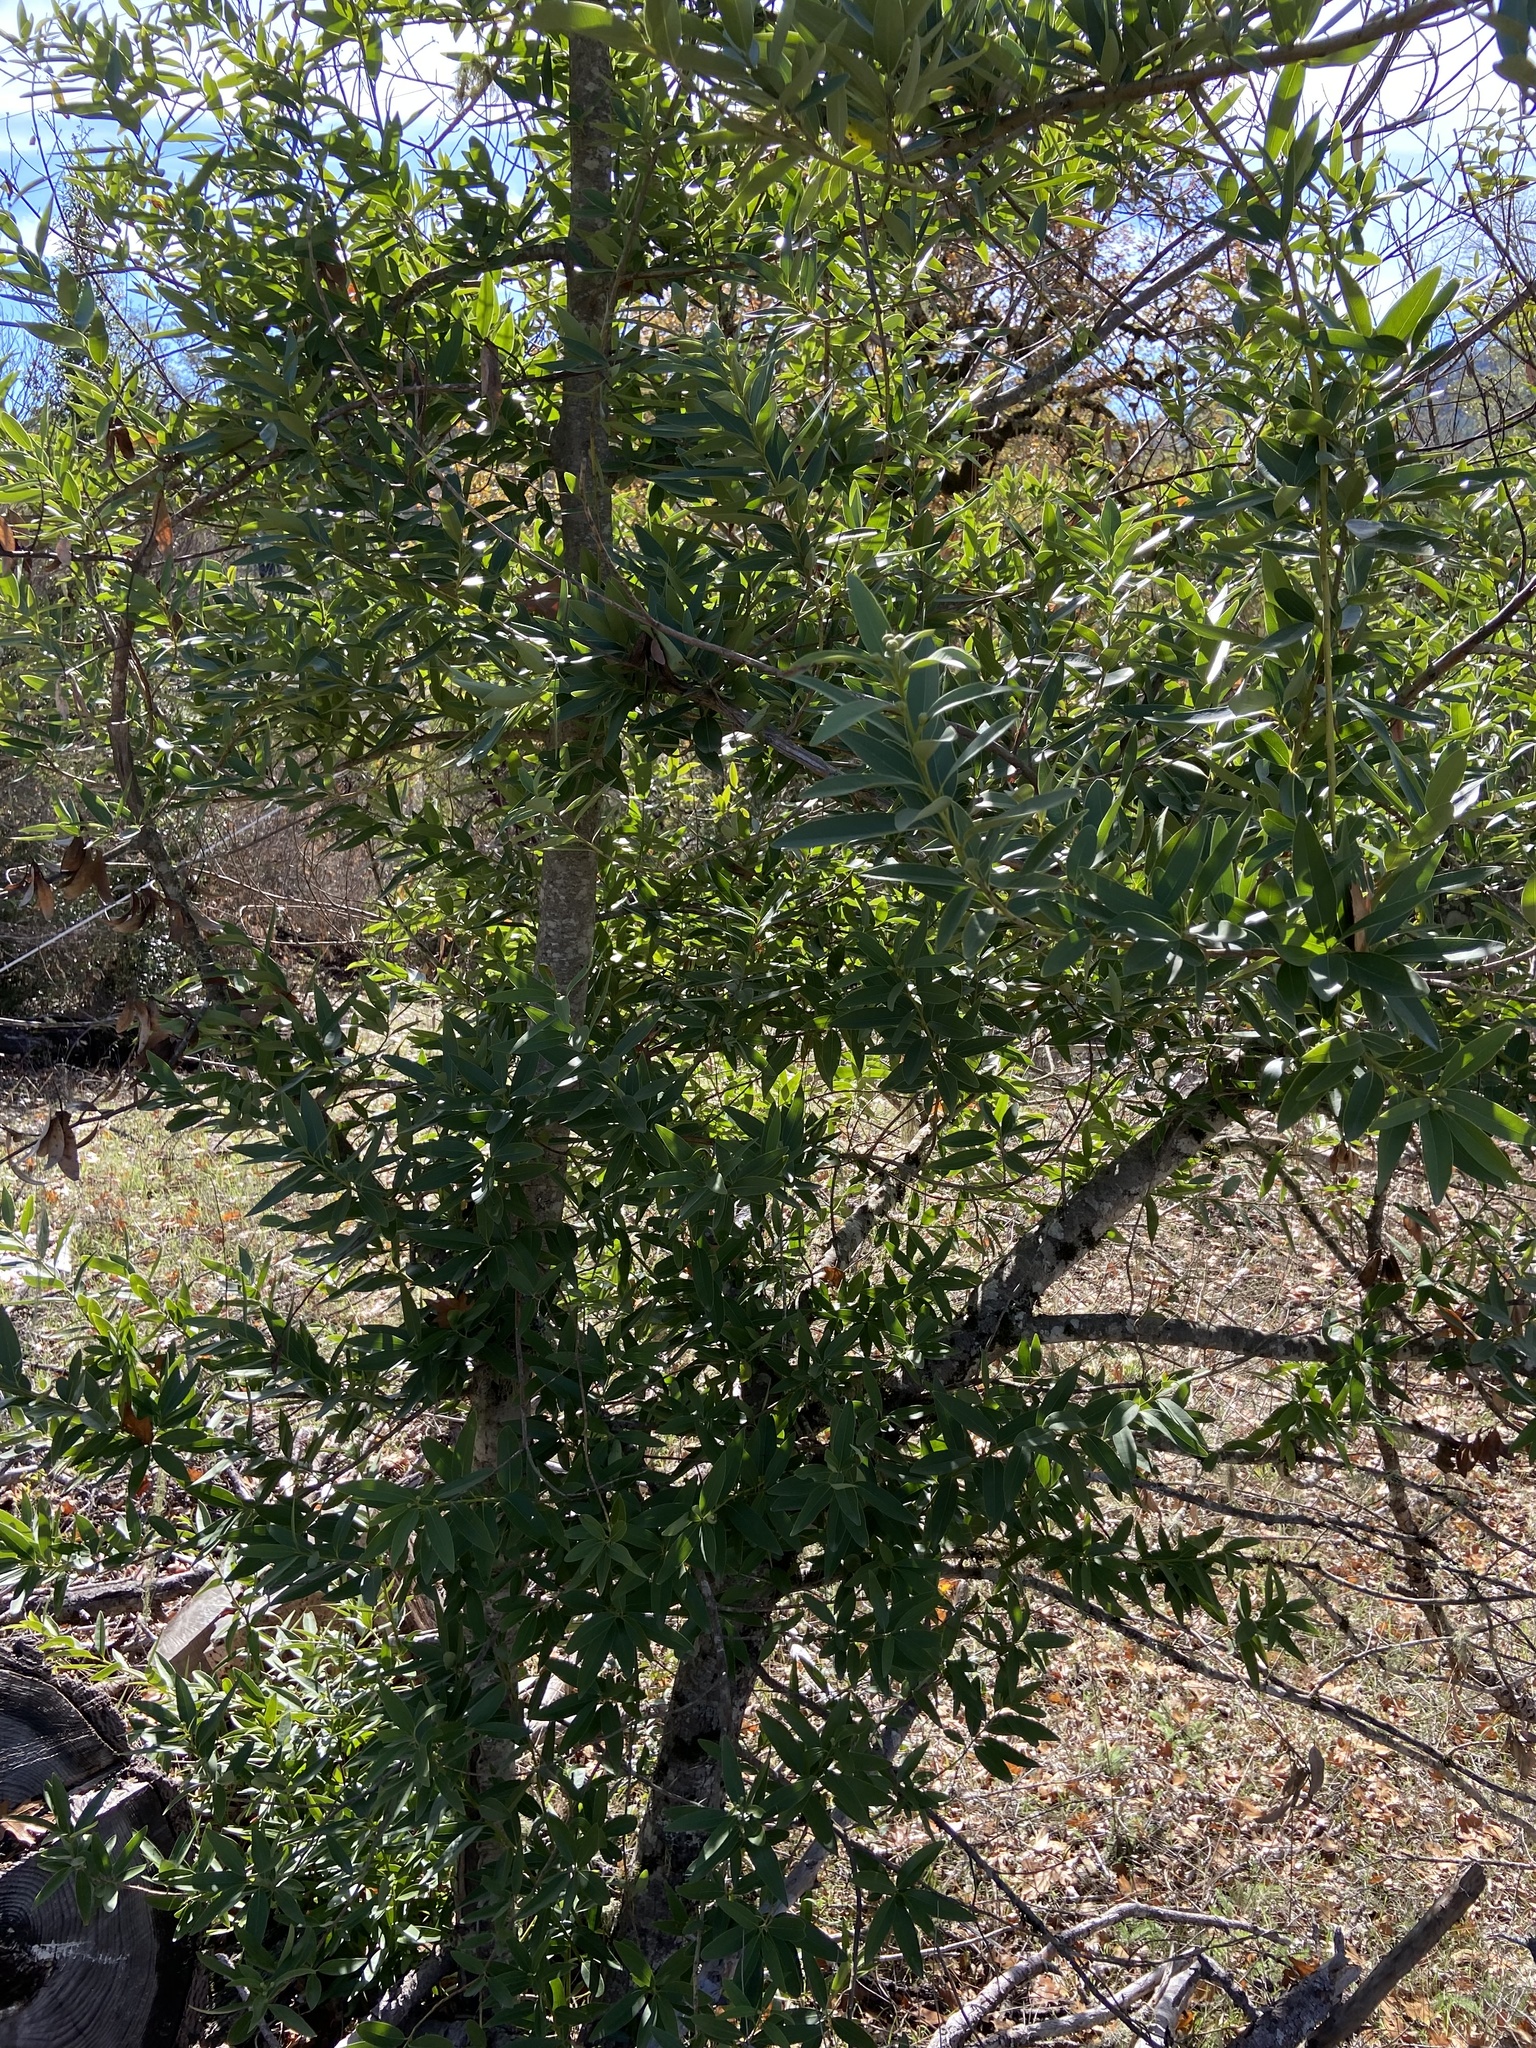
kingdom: Plantae
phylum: Tracheophyta
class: Magnoliopsida
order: Laurales
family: Lauraceae
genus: Umbellularia
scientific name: Umbellularia californica
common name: California bay
